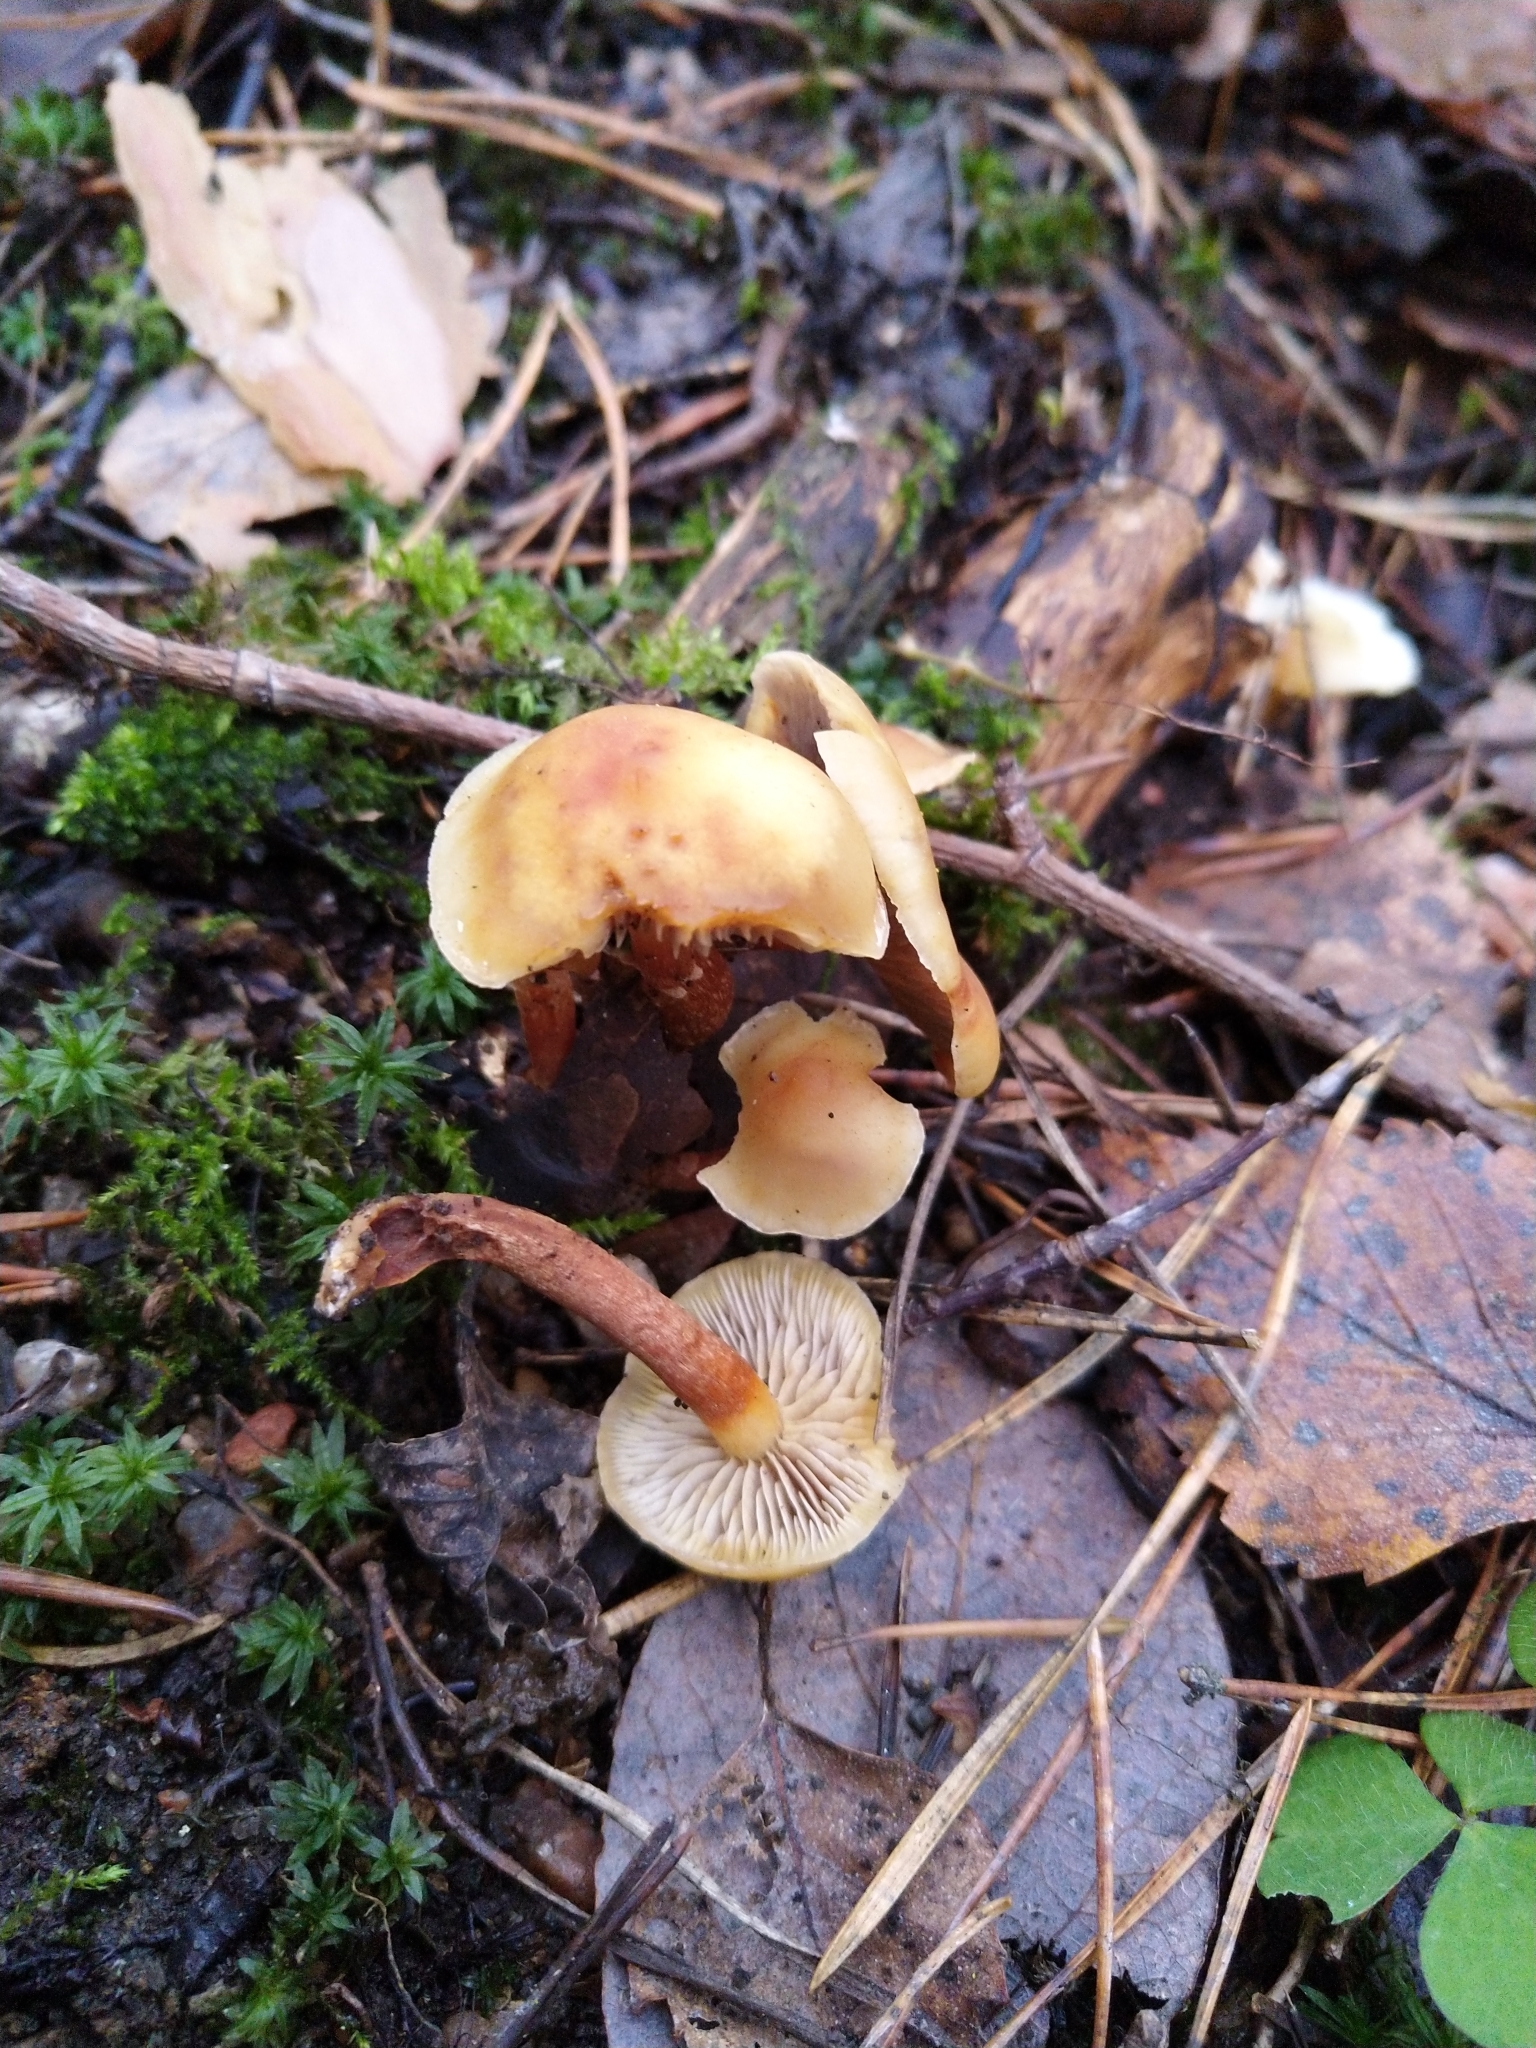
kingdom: Fungi
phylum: Basidiomycota
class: Agaricomycetes
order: Agaricales
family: Strophariaceae
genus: Hypholoma
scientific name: Hypholoma capnoides
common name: Conifer tuft
